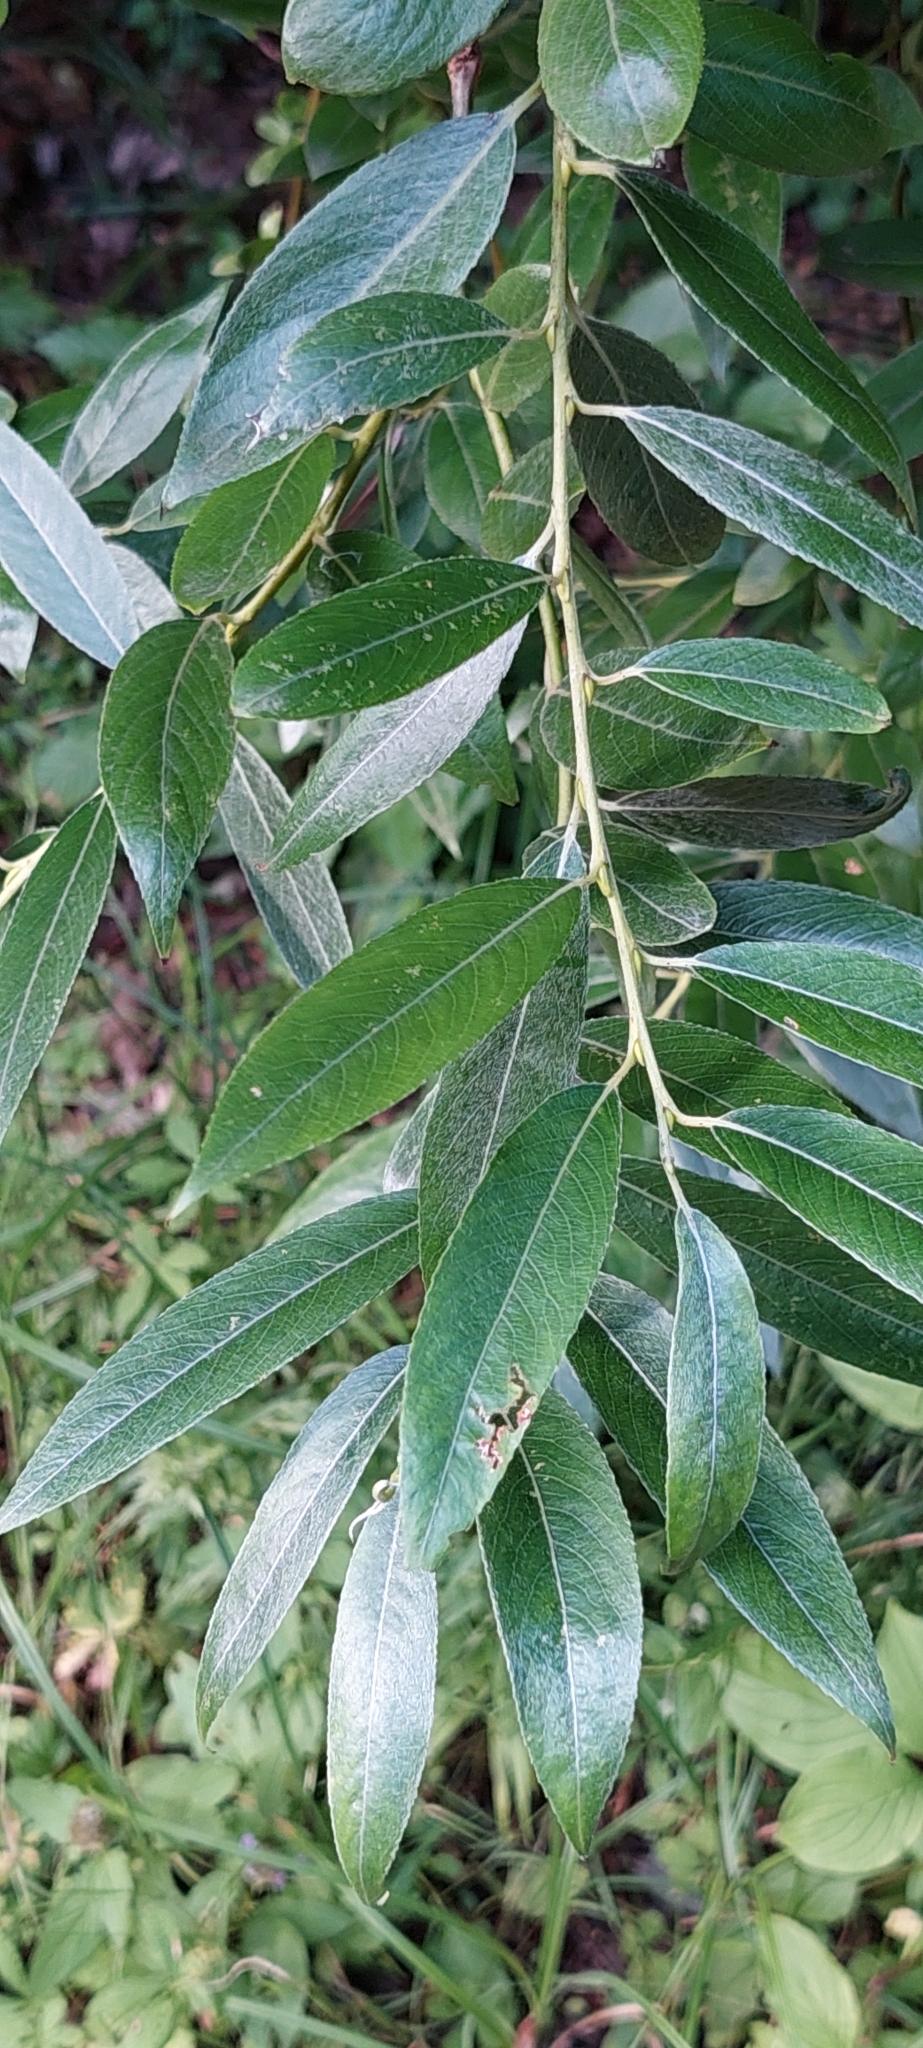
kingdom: Plantae
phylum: Tracheophyta
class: Magnoliopsida
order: Malpighiales
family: Salicaceae
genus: Salix
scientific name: Salix alba
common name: White willow
